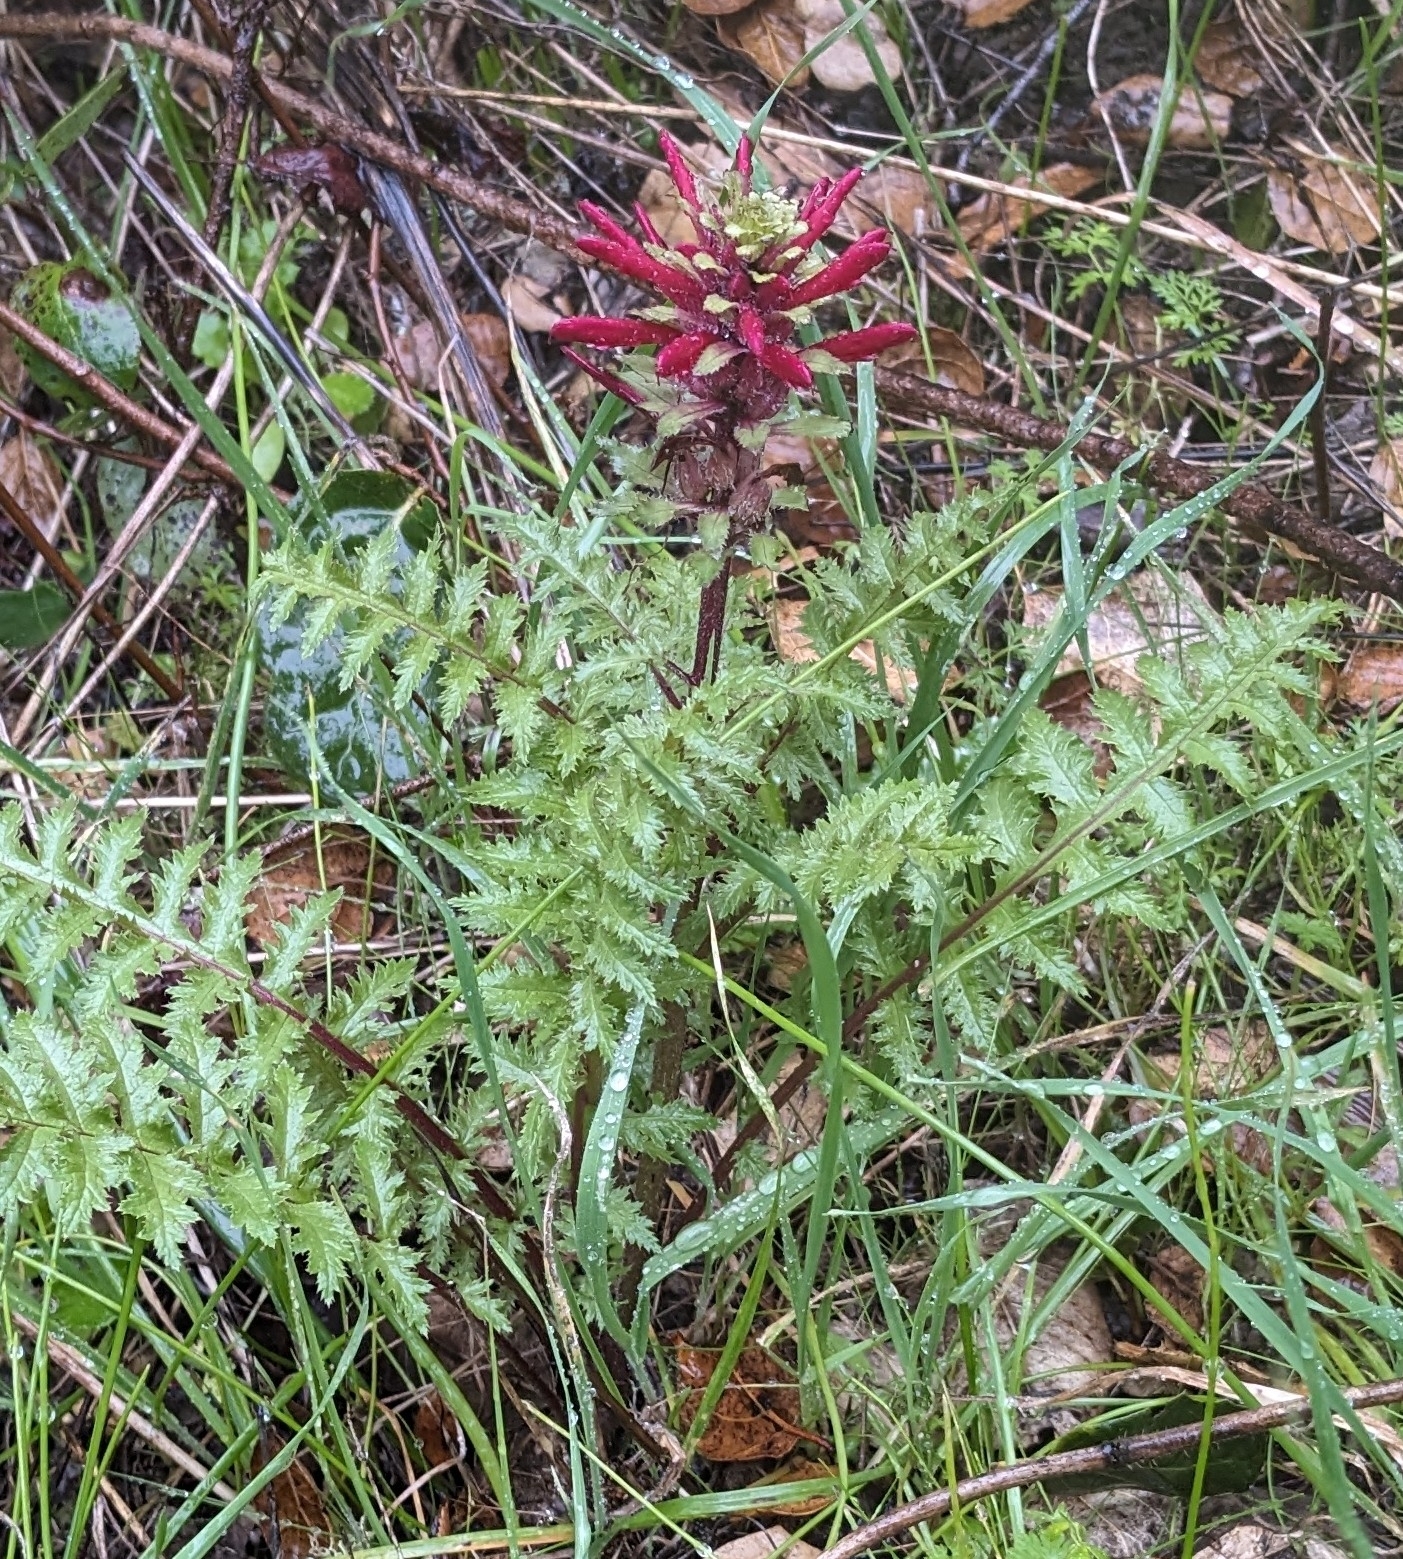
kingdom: Plantae
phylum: Tracheophyta
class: Magnoliopsida
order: Lamiales
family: Orobanchaceae
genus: Pedicularis
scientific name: Pedicularis densiflora
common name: Indian warrior
